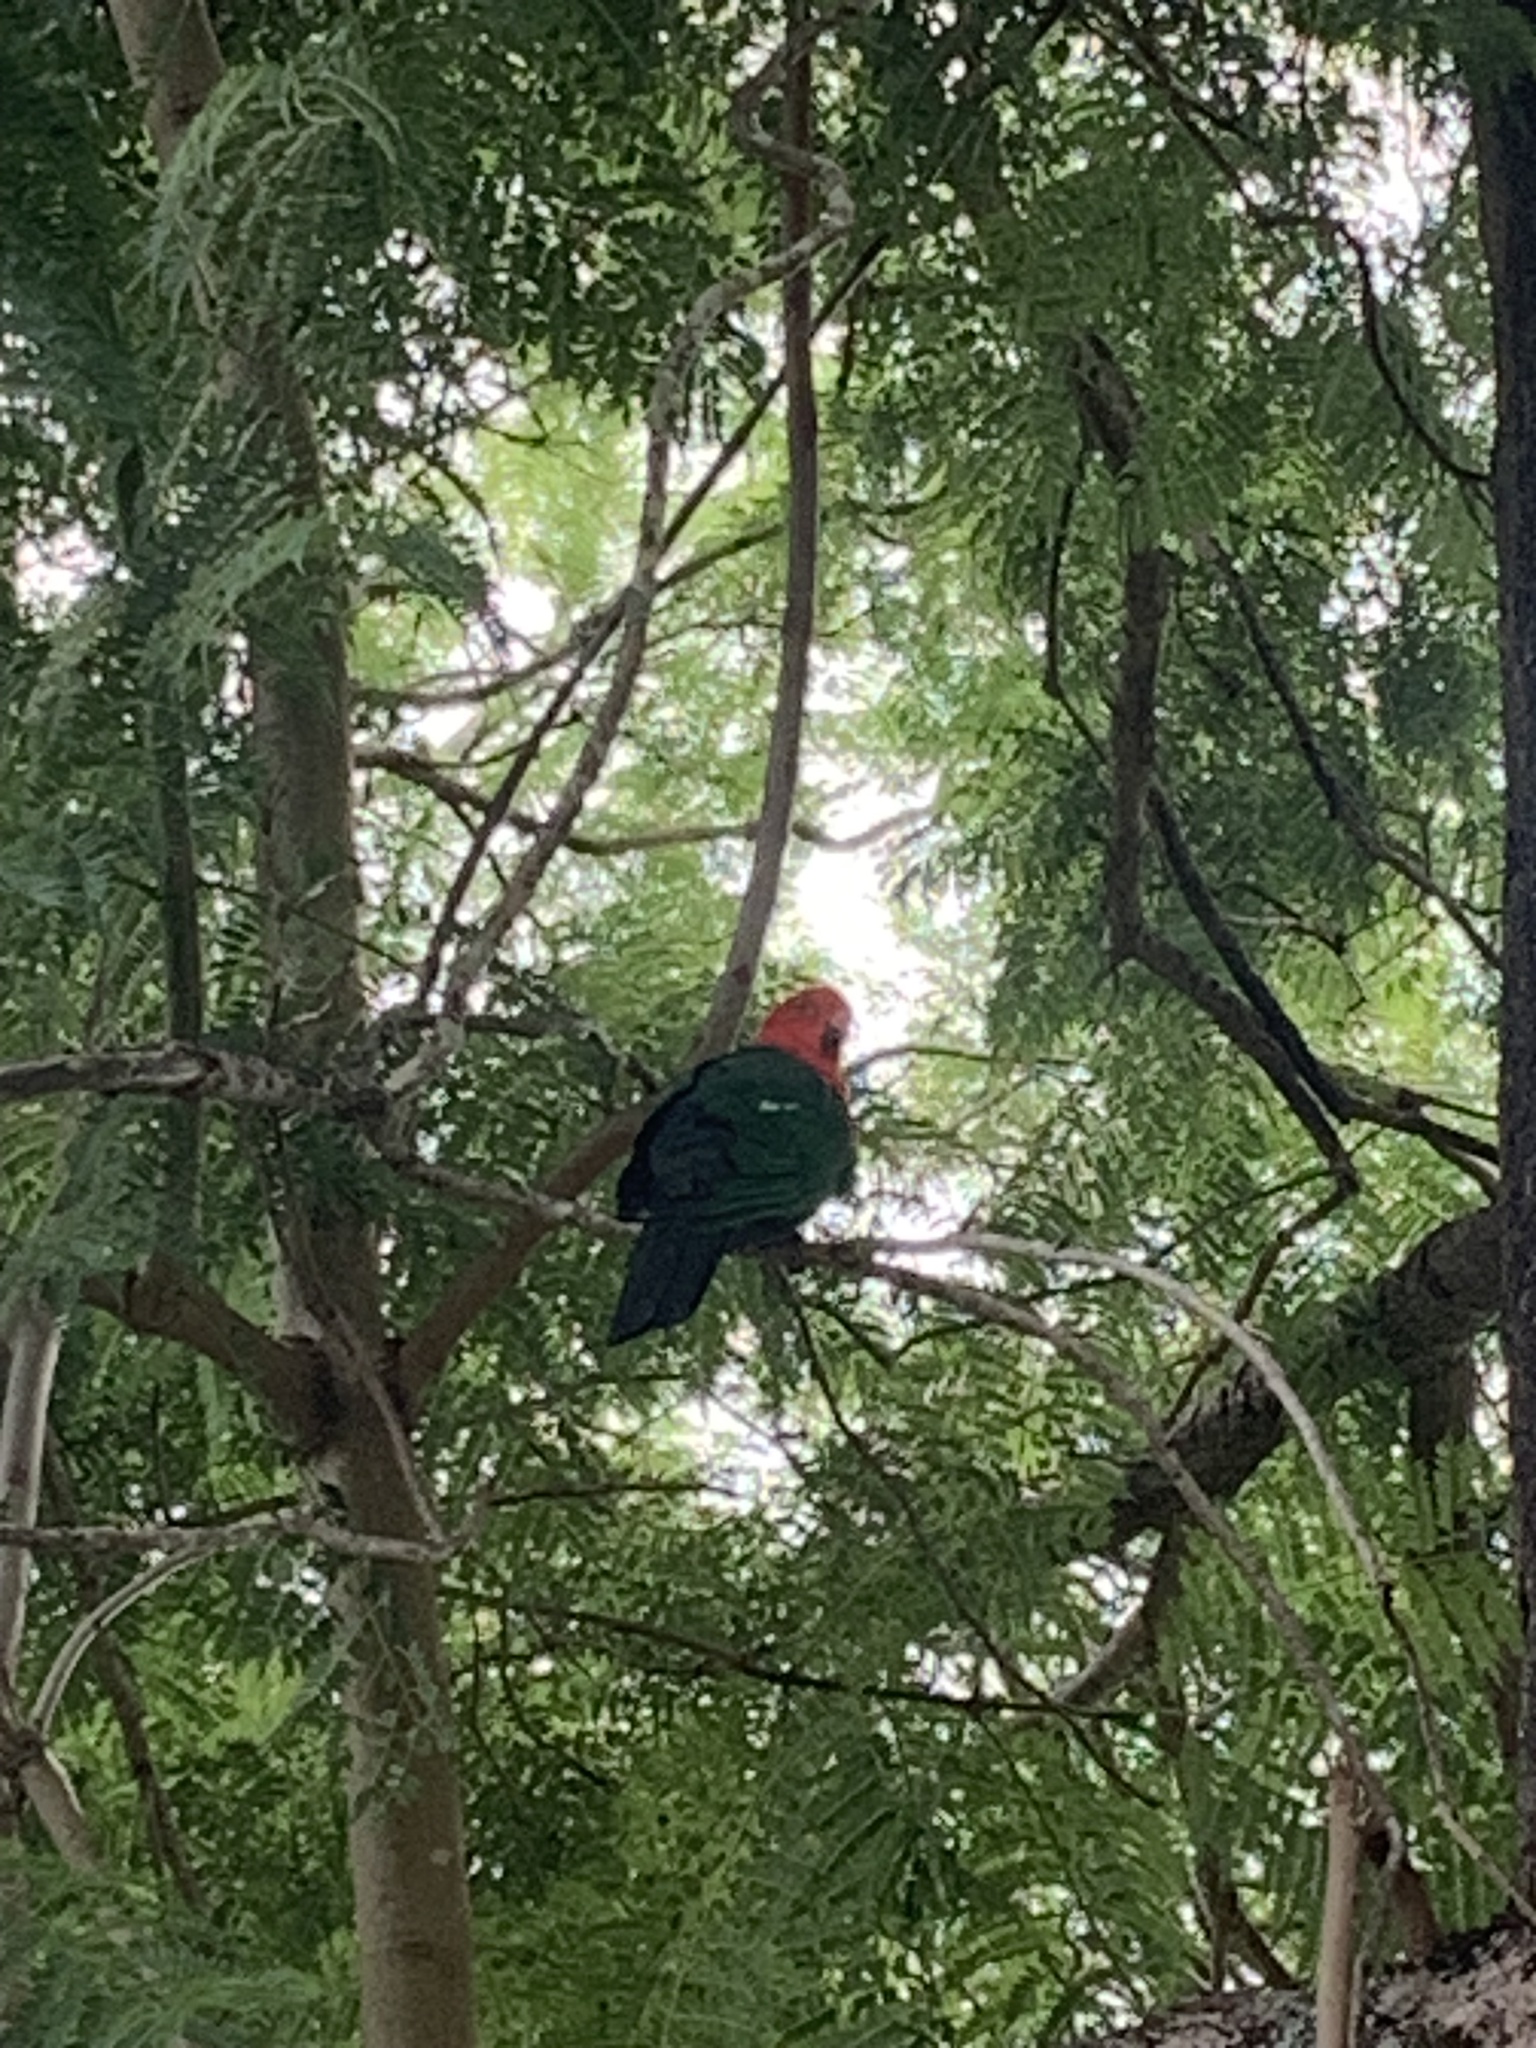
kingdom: Animalia
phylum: Chordata
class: Aves
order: Psittaciformes
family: Psittacidae
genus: Alisterus
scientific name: Alisterus scapularis
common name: Australian king parrot
